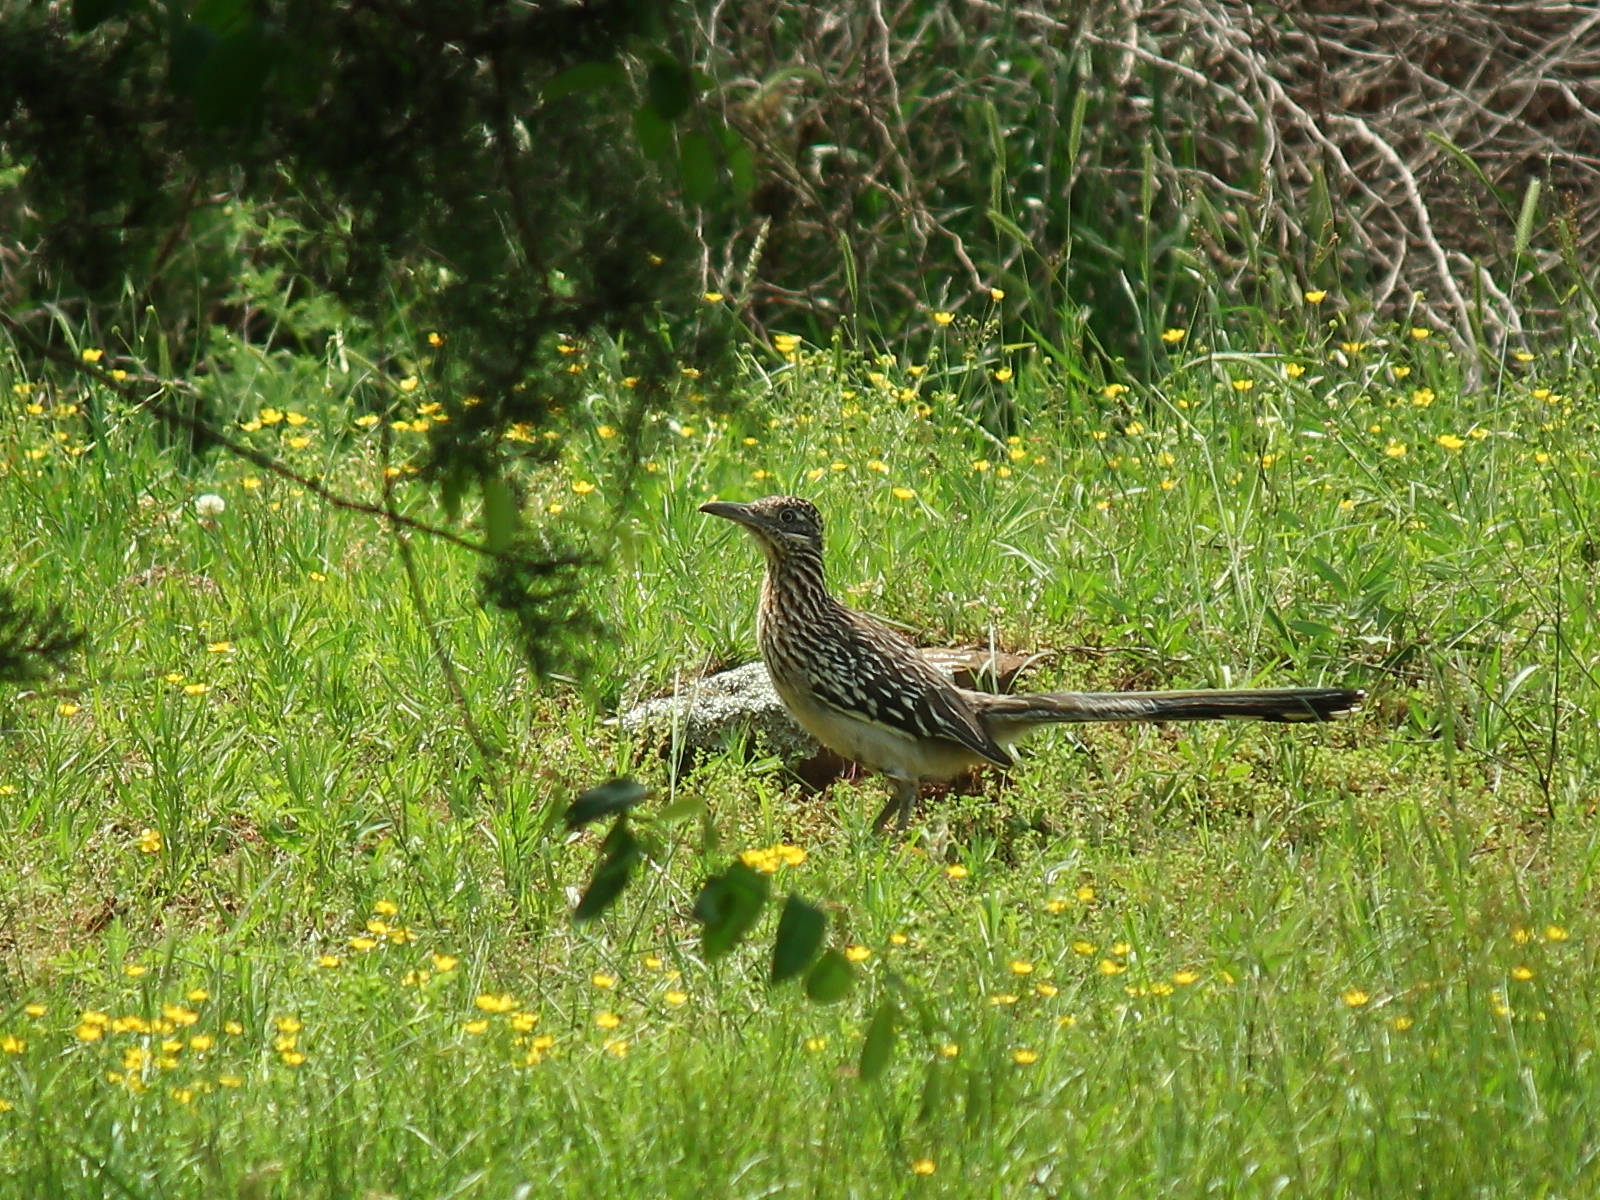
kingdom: Animalia
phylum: Chordata
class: Aves
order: Cuculiformes
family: Cuculidae
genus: Geococcyx
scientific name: Geococcyx californianus
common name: Greater roadrunner
